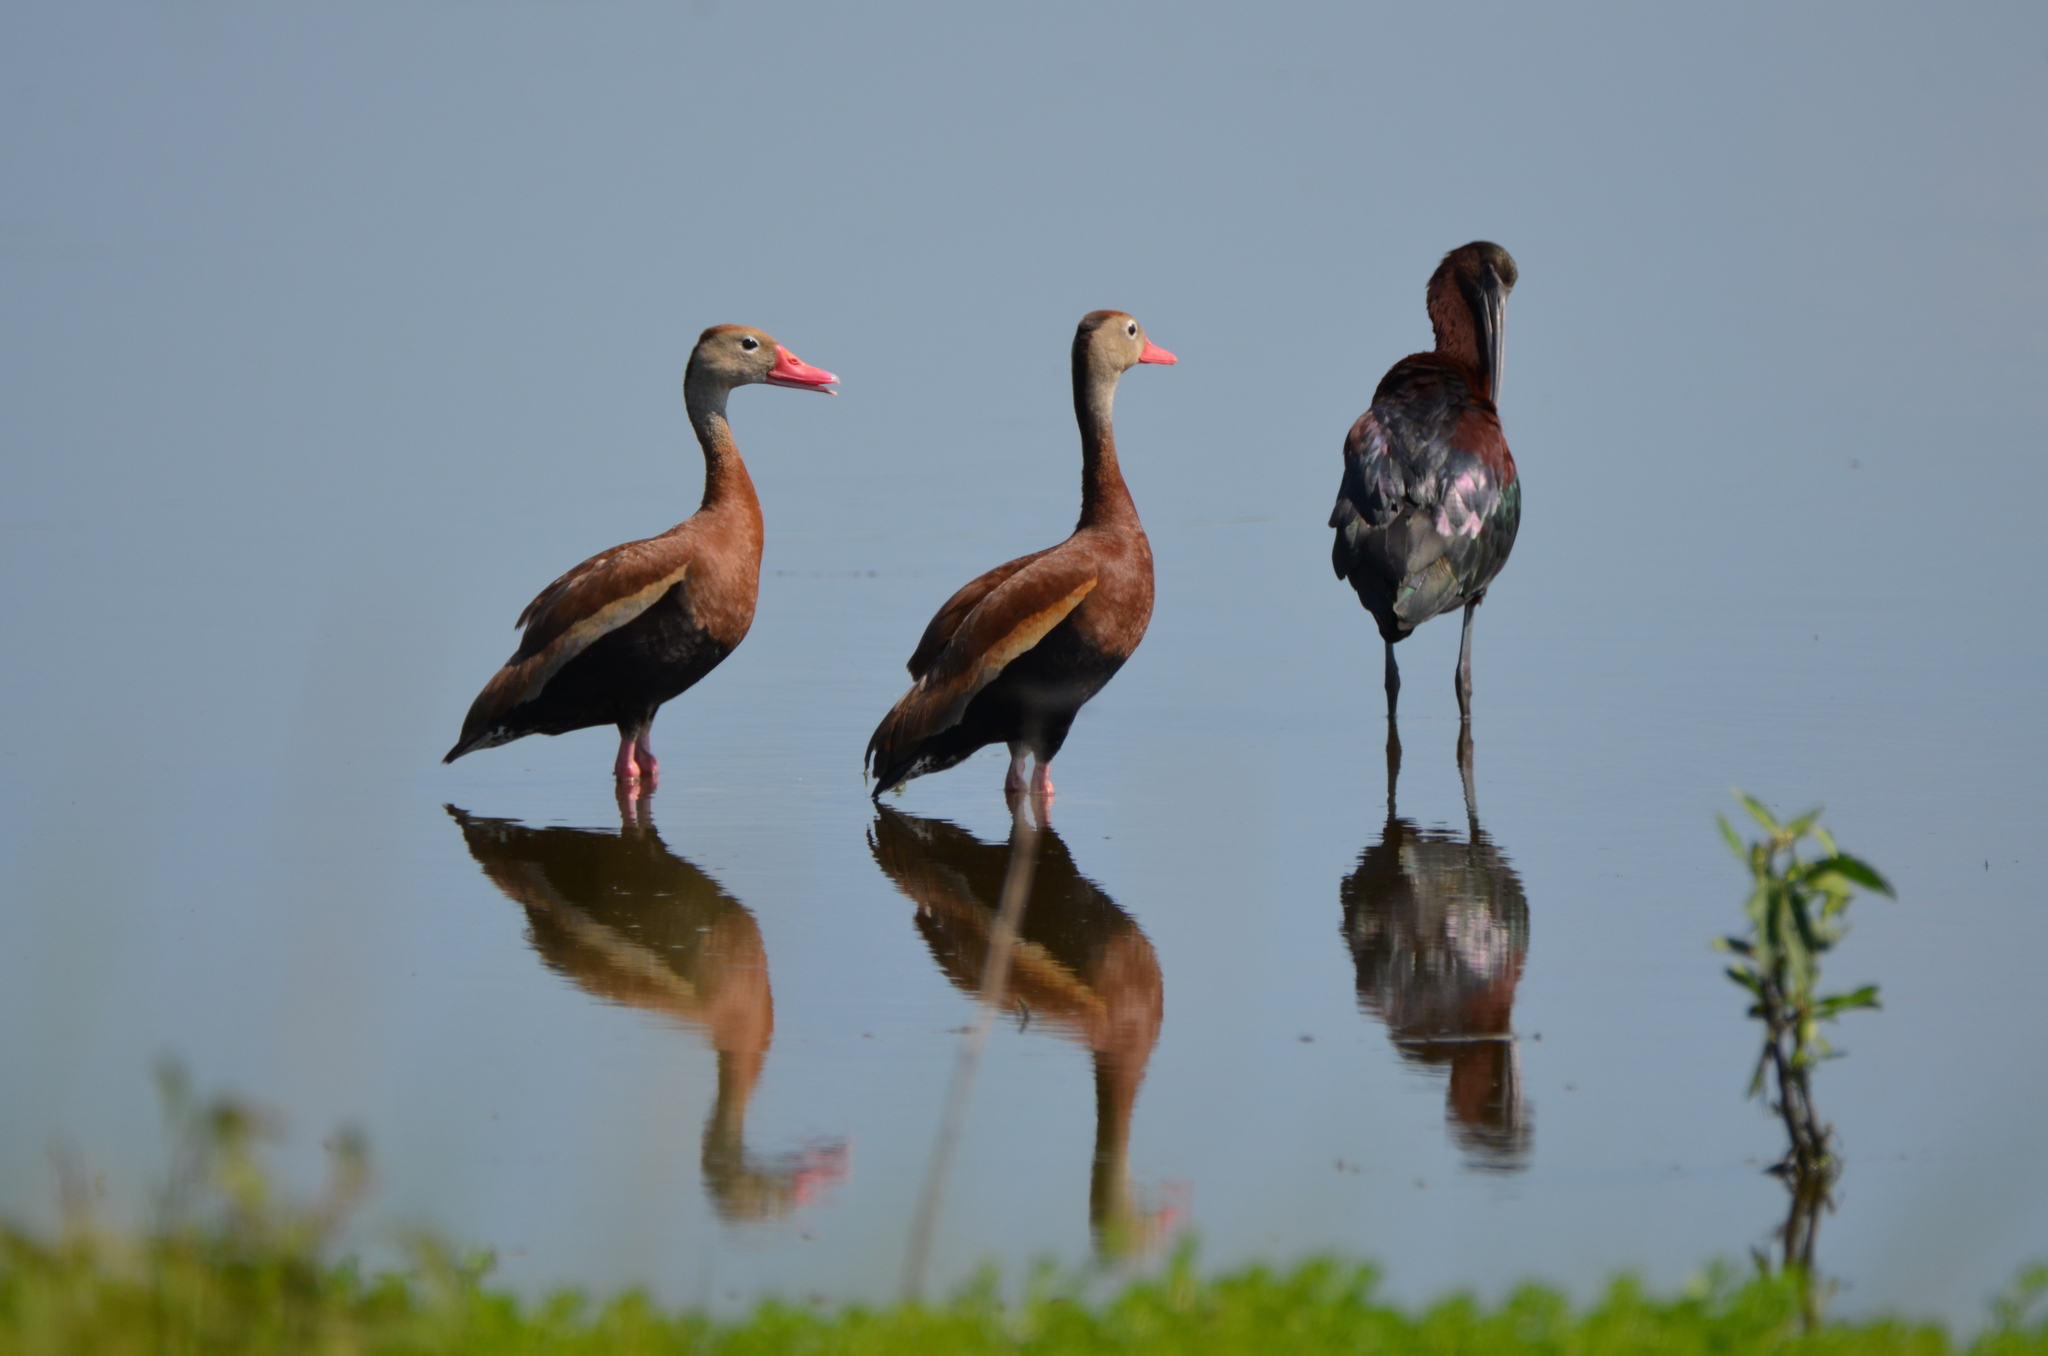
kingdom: Animalia
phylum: Chordata
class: Aves
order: Anseriformes
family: Anatidae
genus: Dendrocygna
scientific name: Dendrocygna autumnalis
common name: Black-bellied whistling duck
